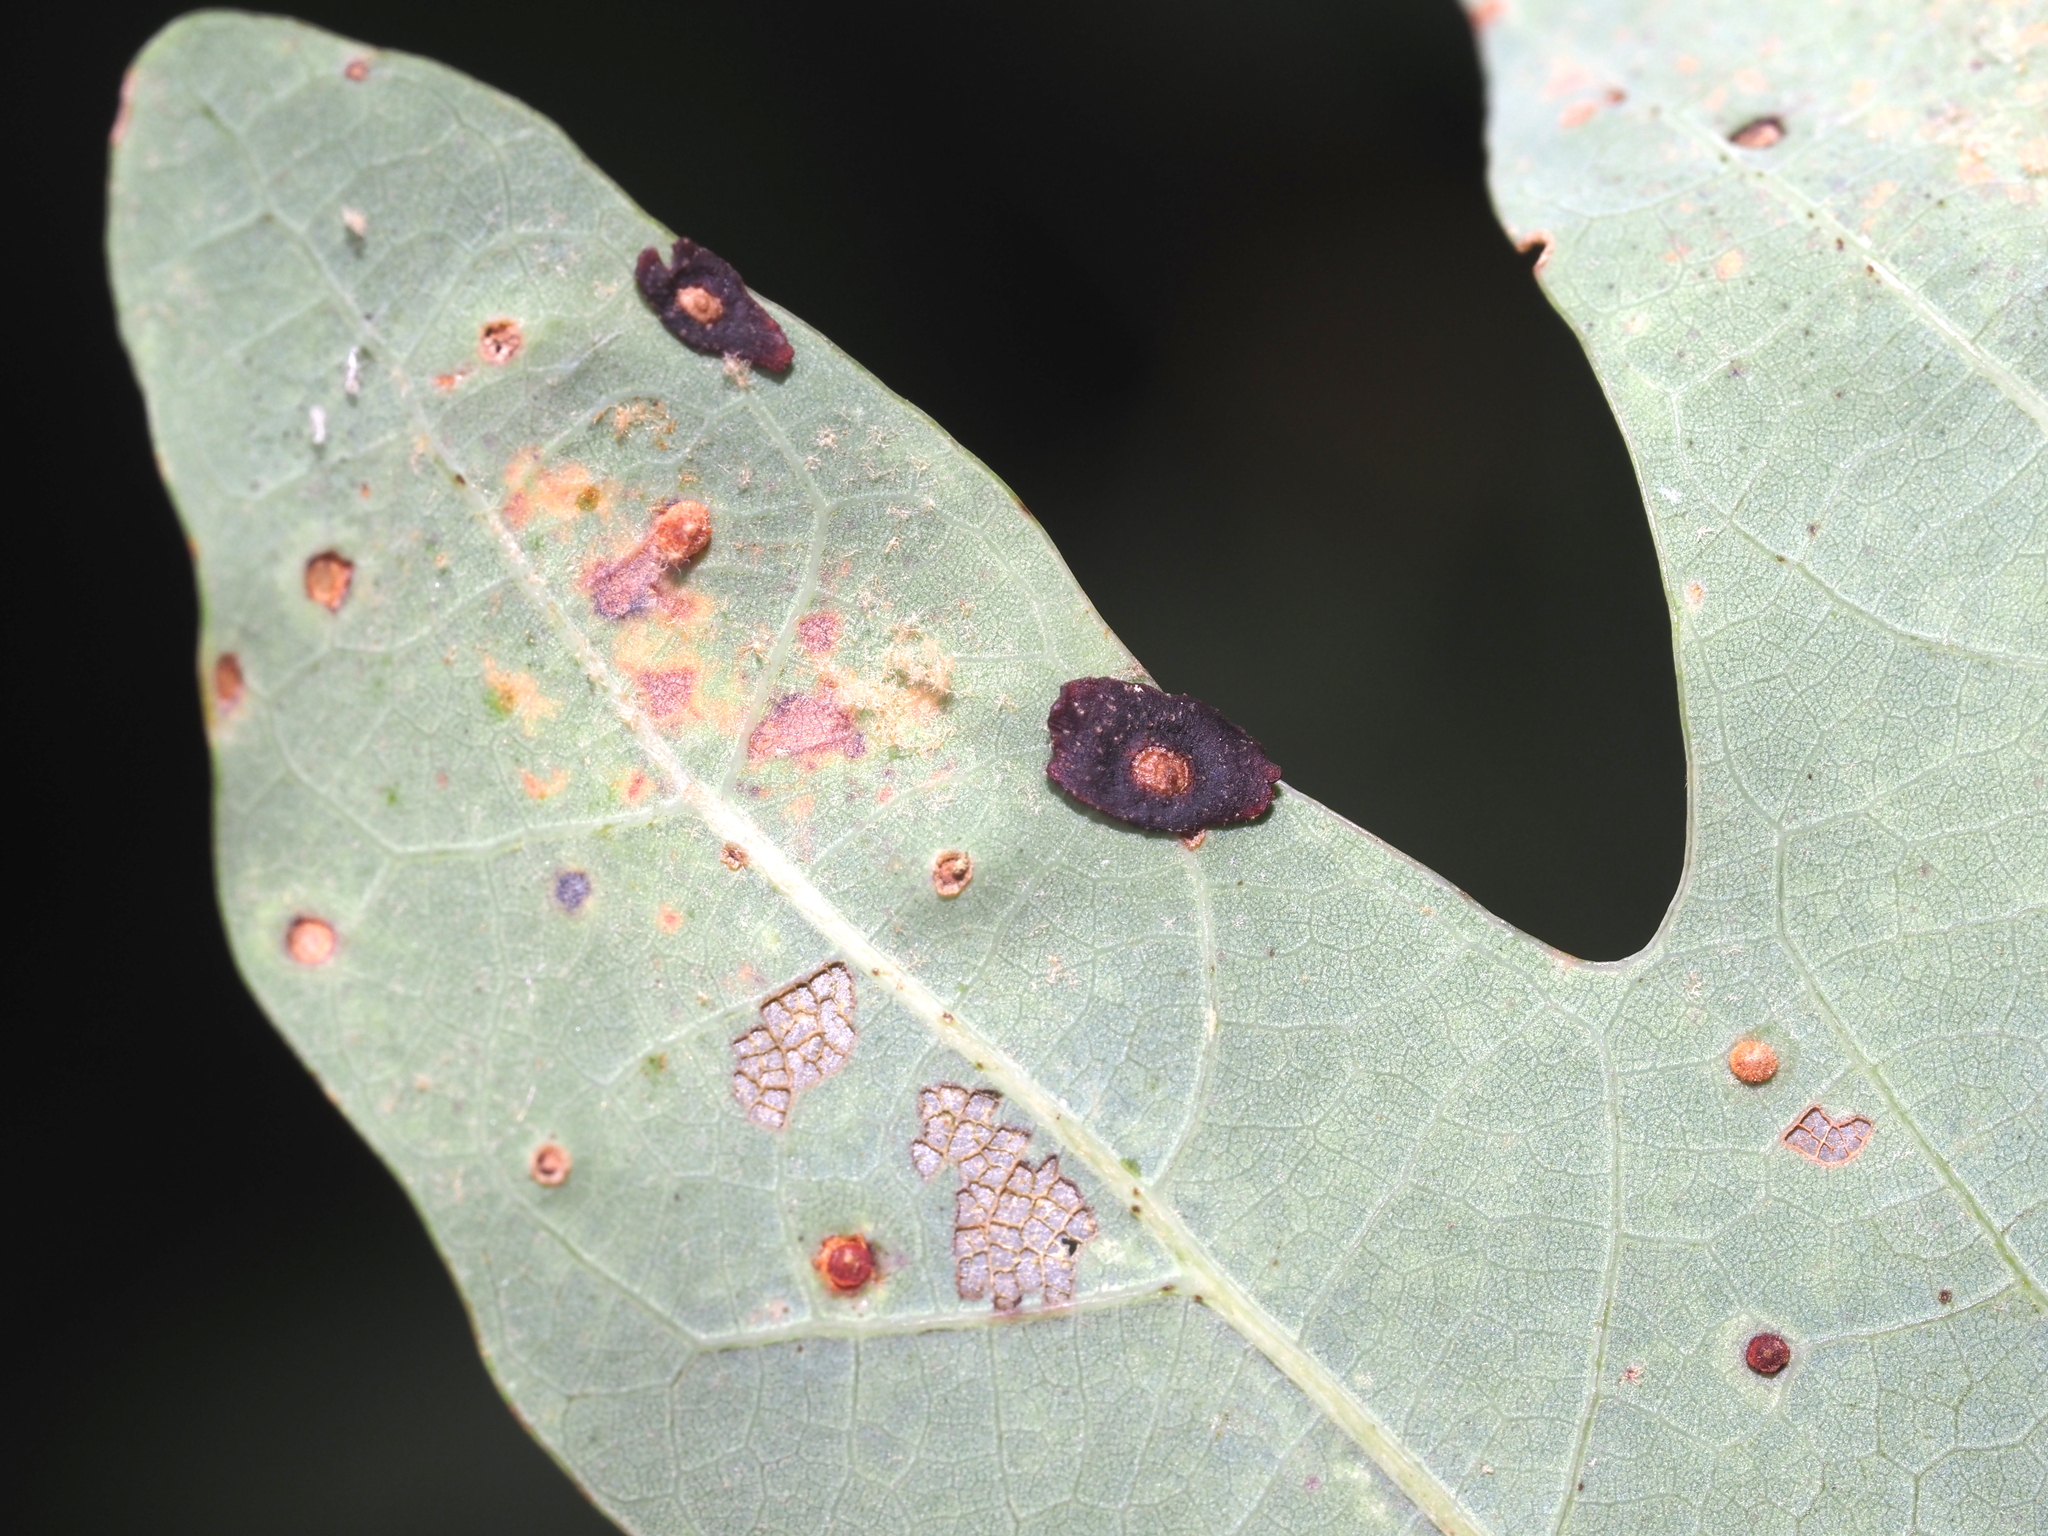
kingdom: Animalia
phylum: Arthropoda
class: Insecta
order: Hymenoptera
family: Cynipidae
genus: Phylloteras
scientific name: Phylloteras
